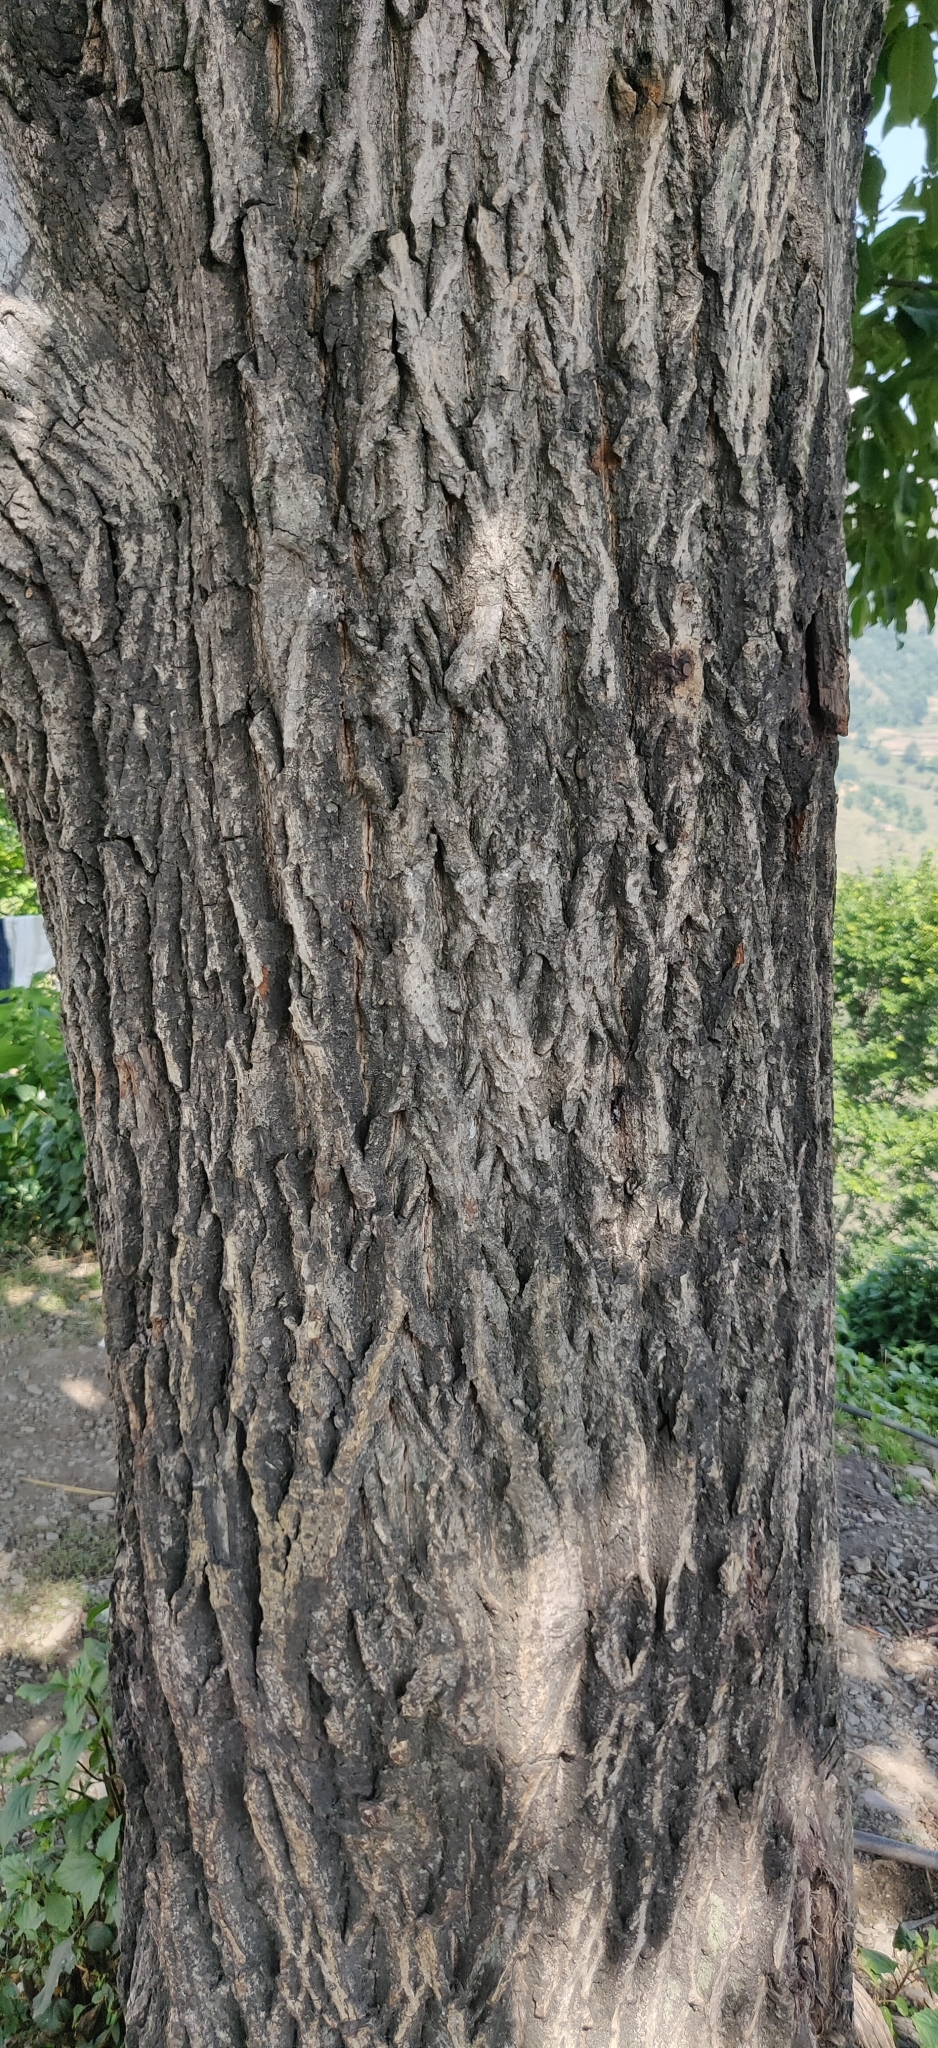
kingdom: Plantae
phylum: Tracheophyta
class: Magnoliopsida
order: Fagales
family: Juglandaceae
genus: Juglans
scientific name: Juglans regia
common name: Walnut
